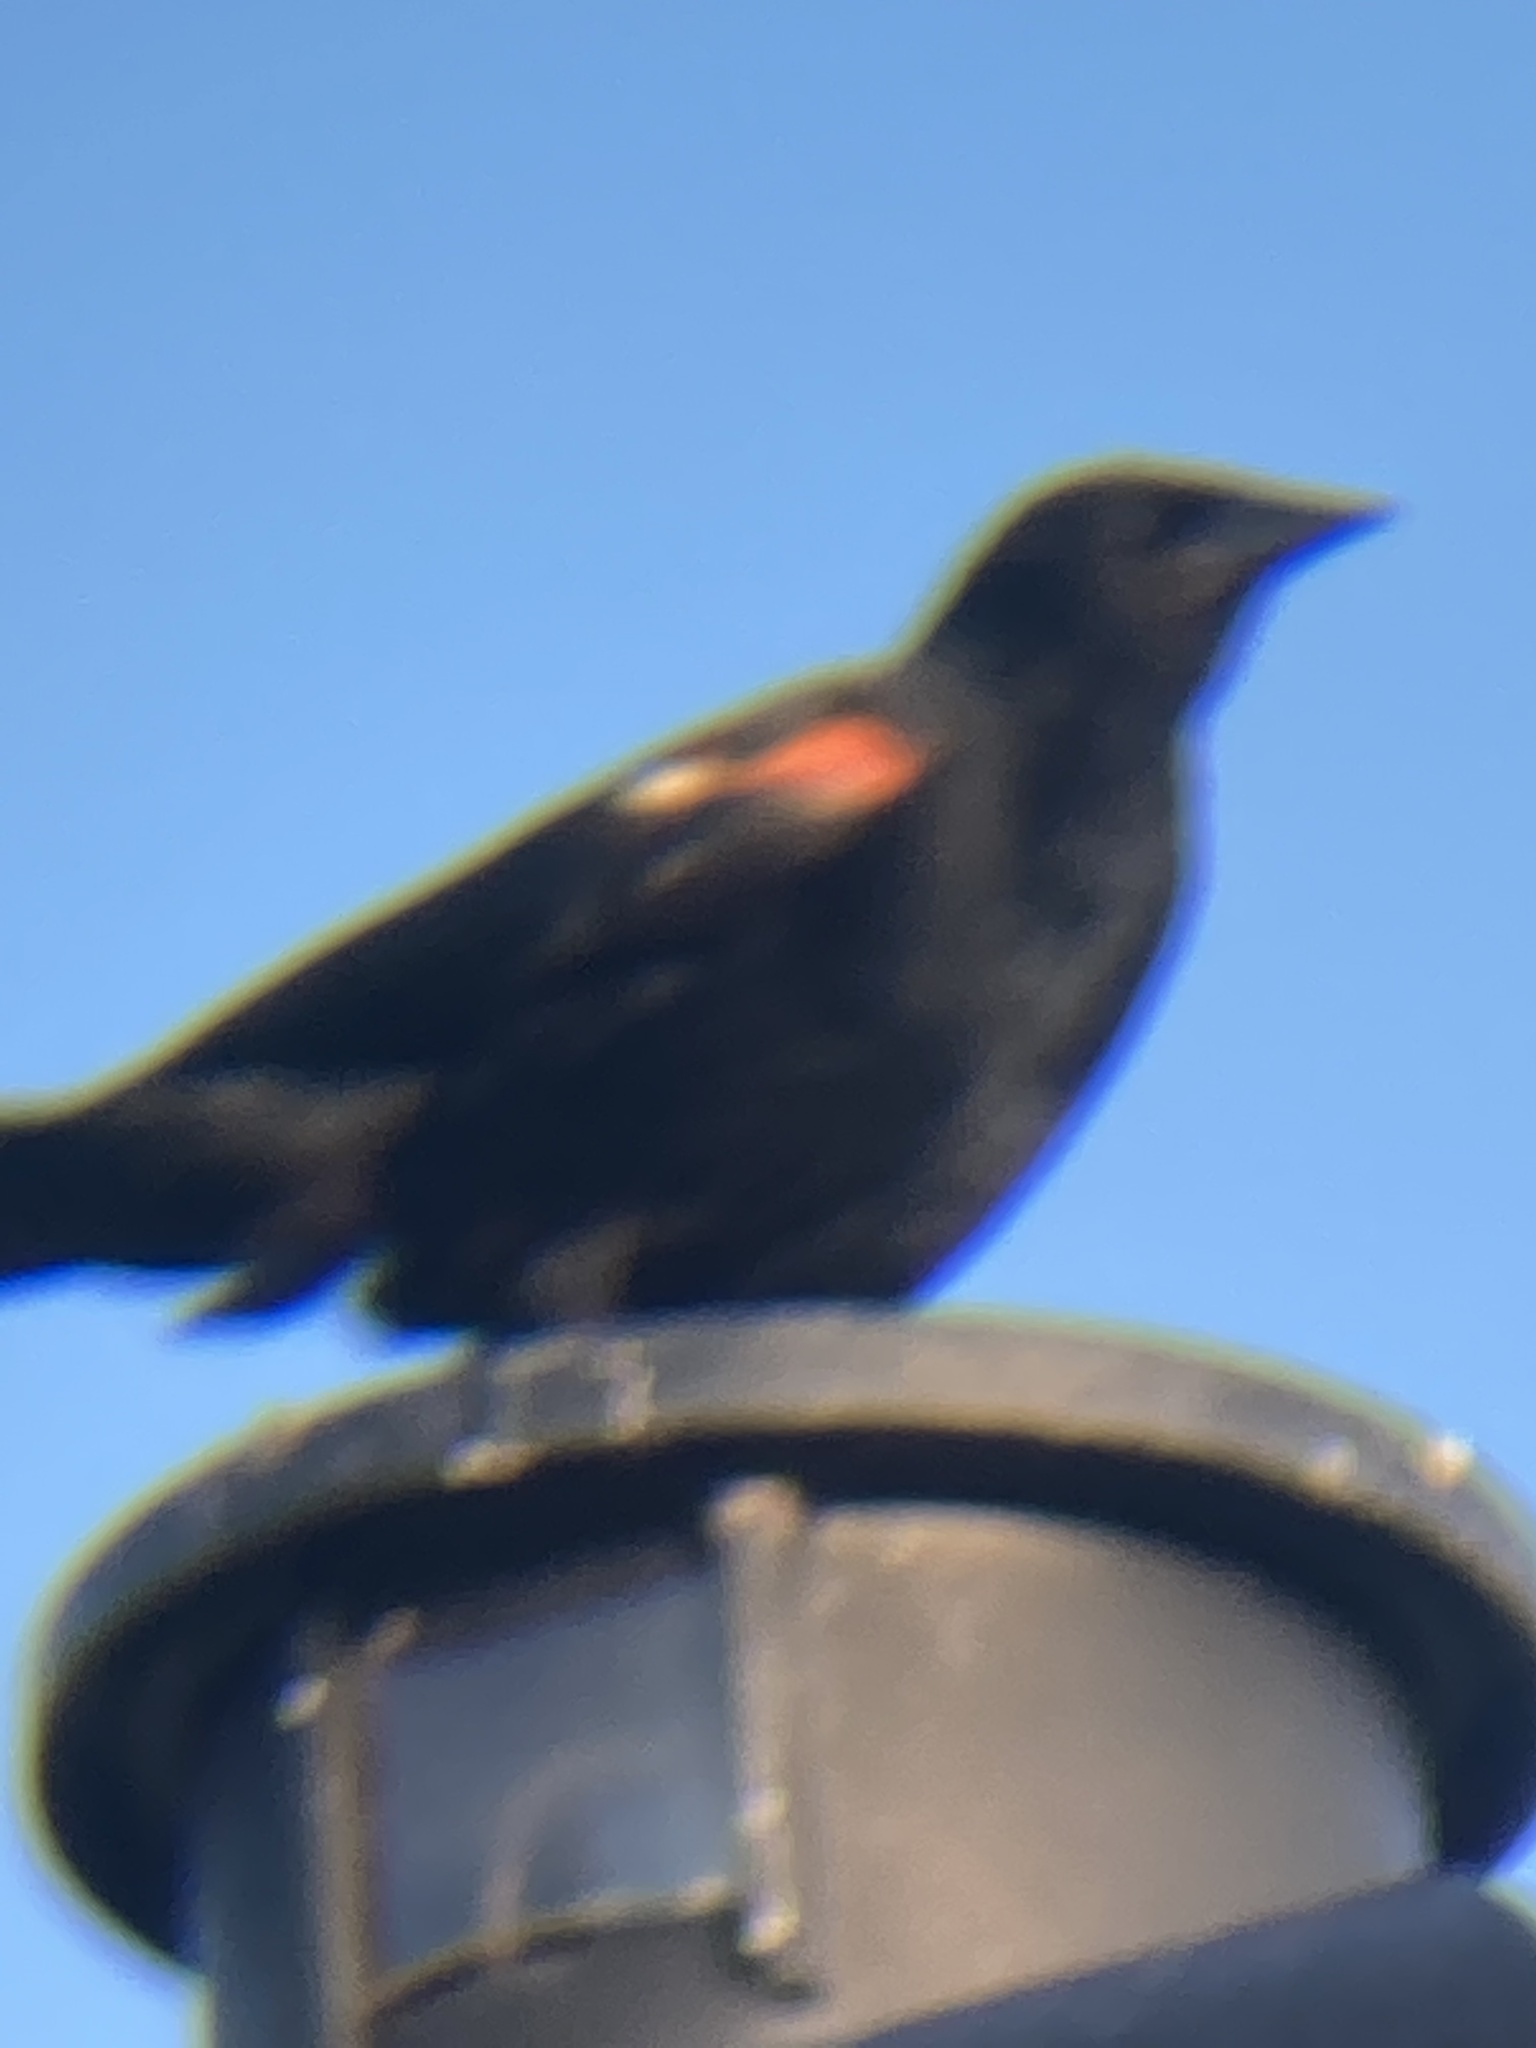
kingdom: Animalia
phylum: Chordata
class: Aves
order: Passeriformes
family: Icteridae
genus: Agelaius
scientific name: Agelaius phoeniceus
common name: Red-winged blackbird
